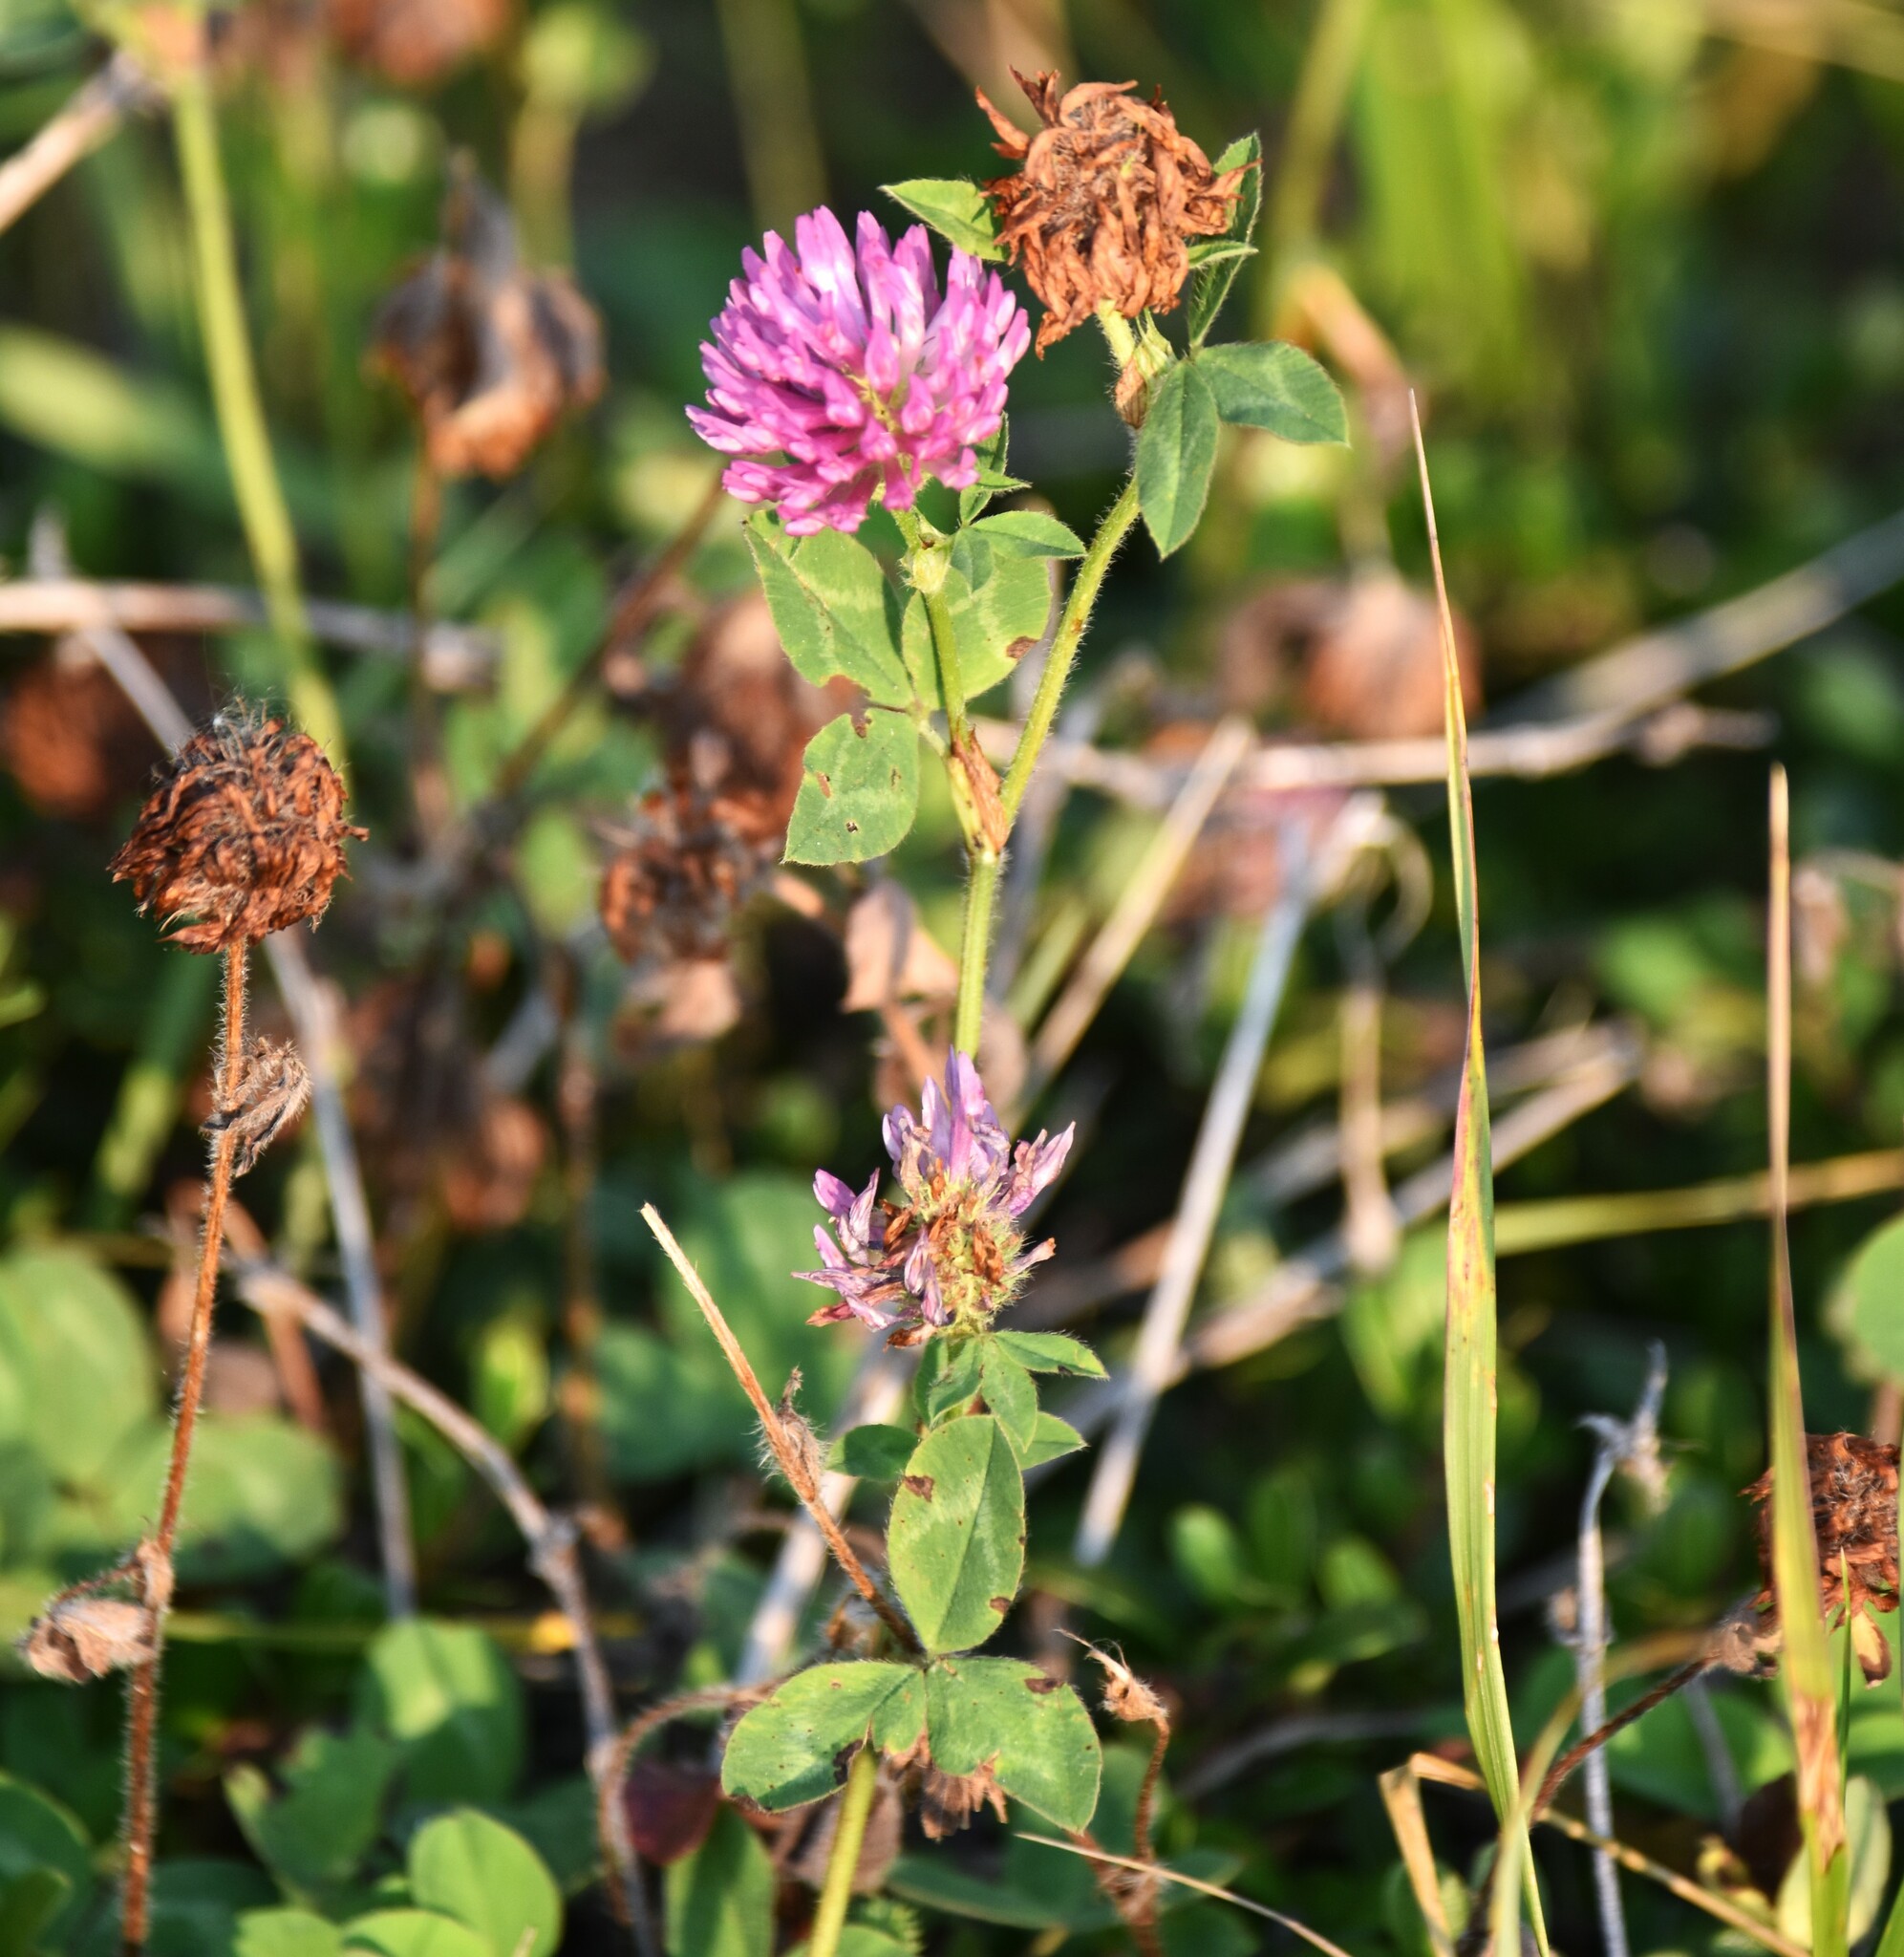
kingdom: Plantae
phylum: Tracheophyta
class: Magnoliopsida
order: Fabales
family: Fabaceae
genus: Trifolium
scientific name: Trifolium pratense
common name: Red clover
